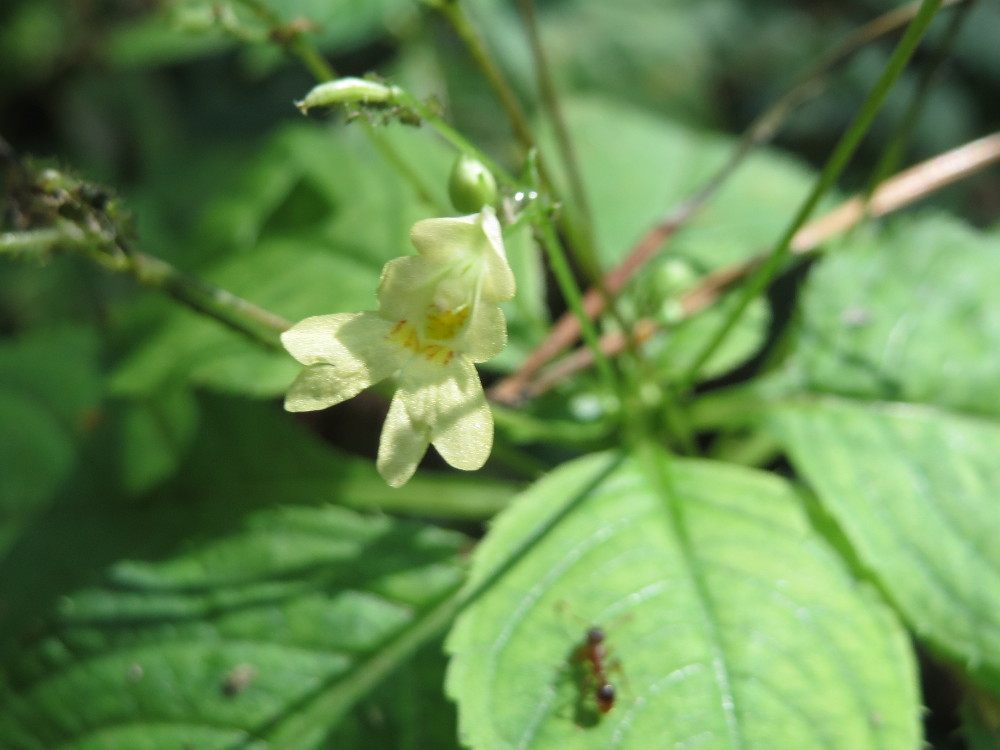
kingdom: Plantae
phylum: Tracheophyta
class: Magnoliopsida
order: Ericales
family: Balsaminaceae
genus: Impatiens
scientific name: Impatiens parviflora
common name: Small balsam
